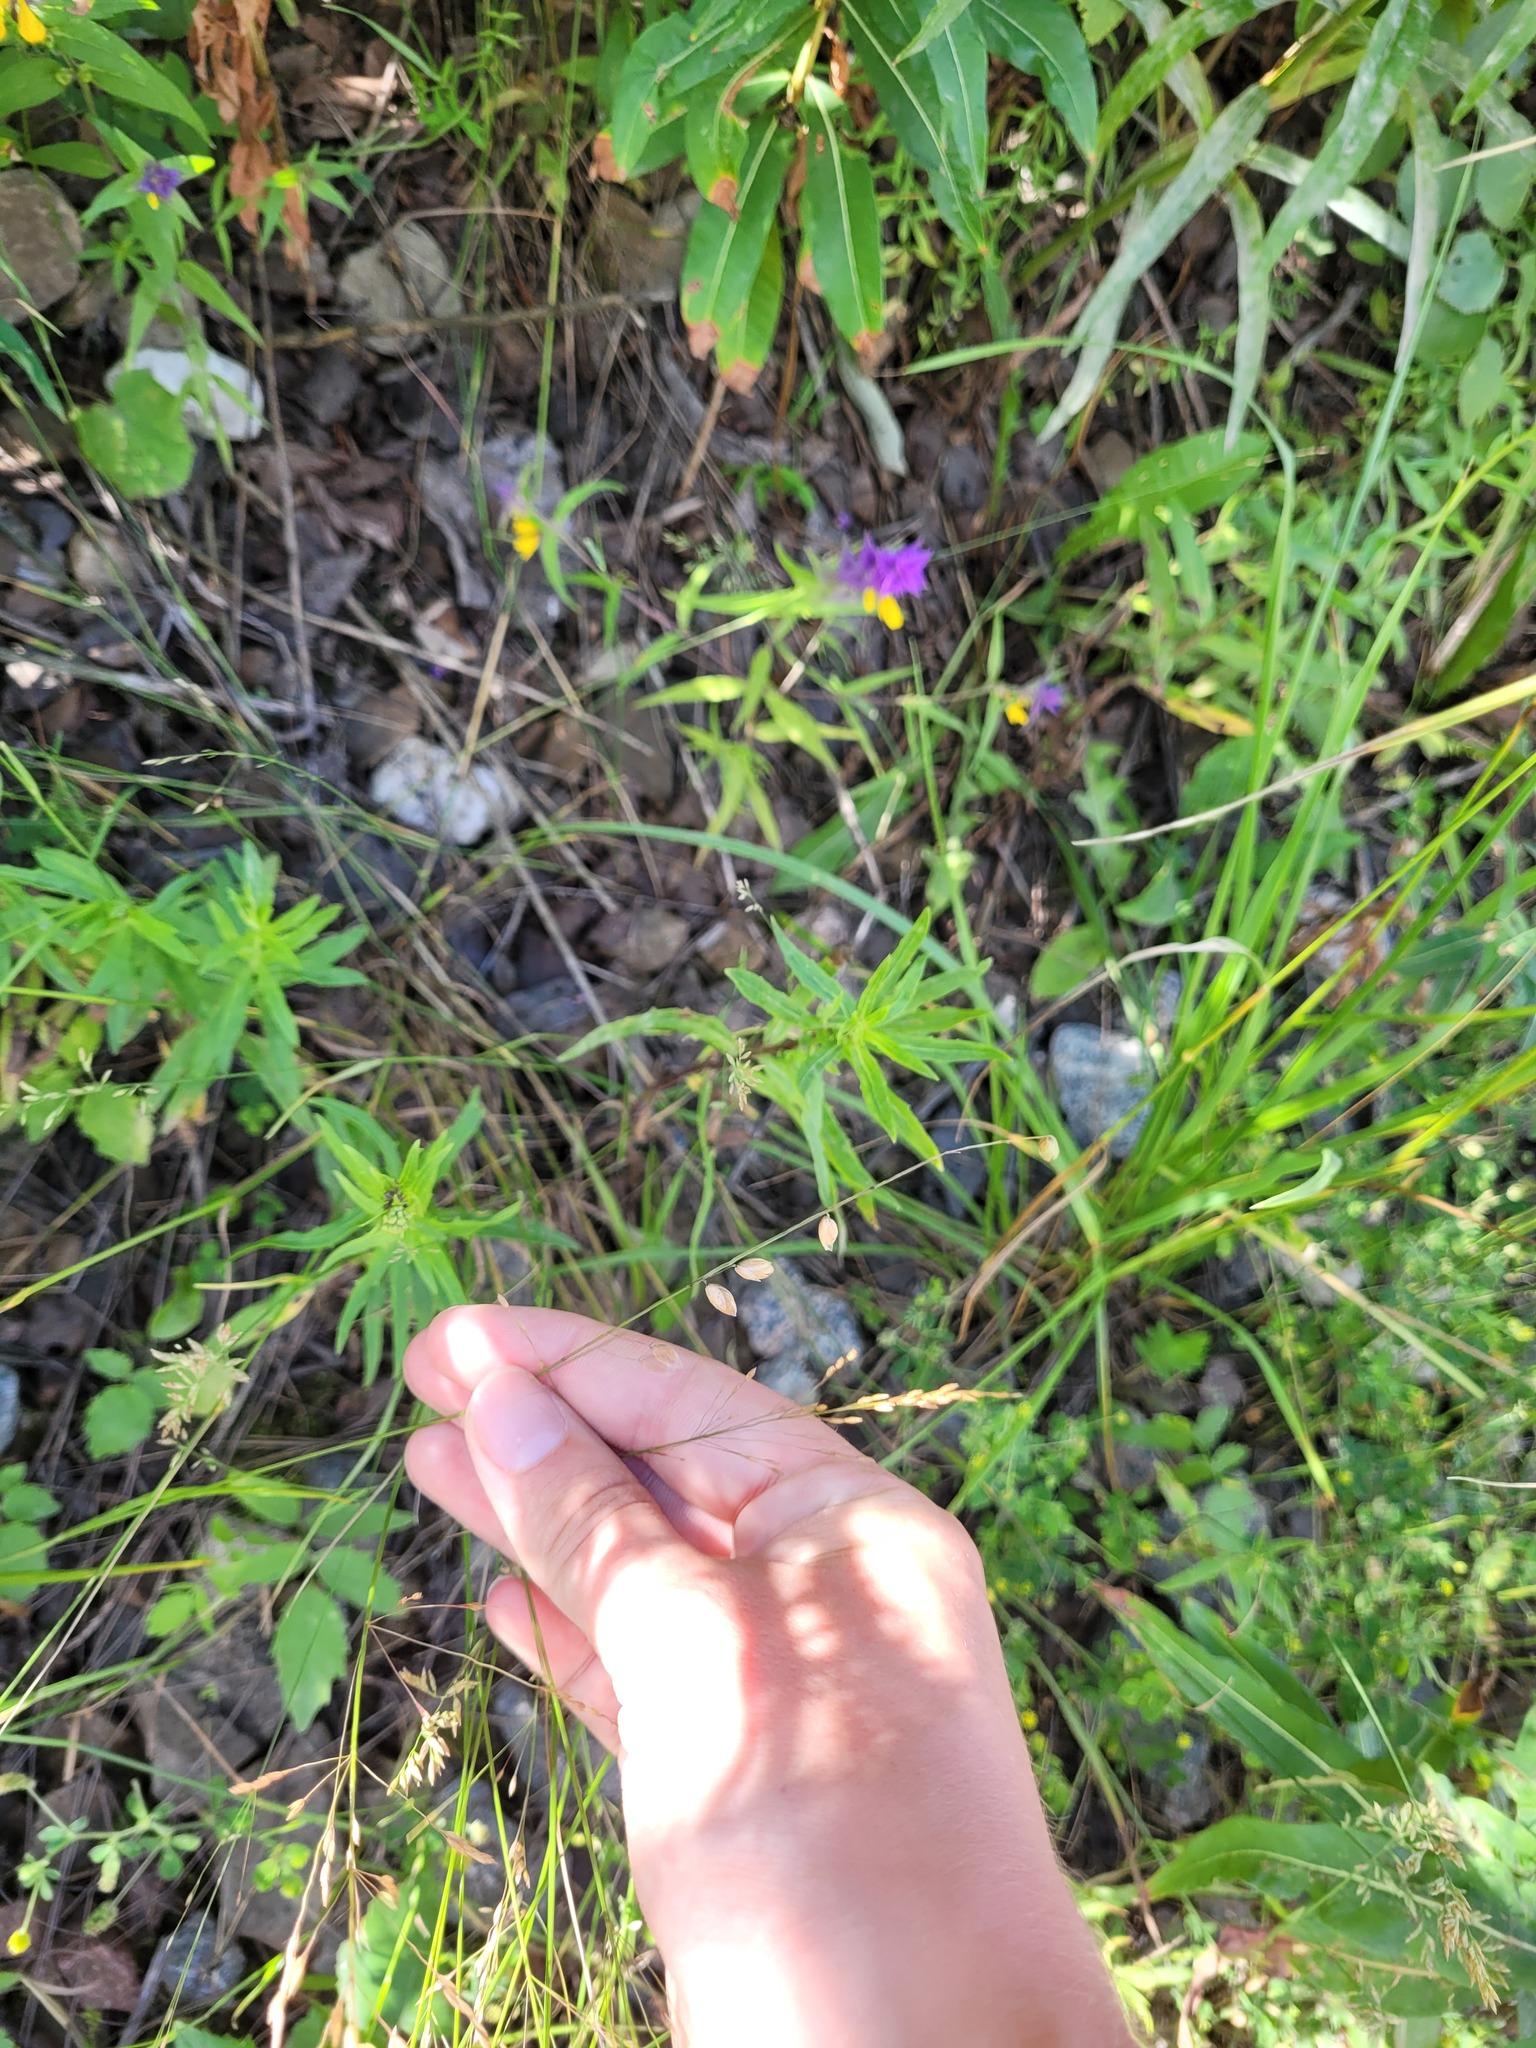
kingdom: Plantae
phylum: Tracheophyta
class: Liliopsida
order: Poales
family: Poaceae
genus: Melica
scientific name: Melica nutans
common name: Mountain melick
